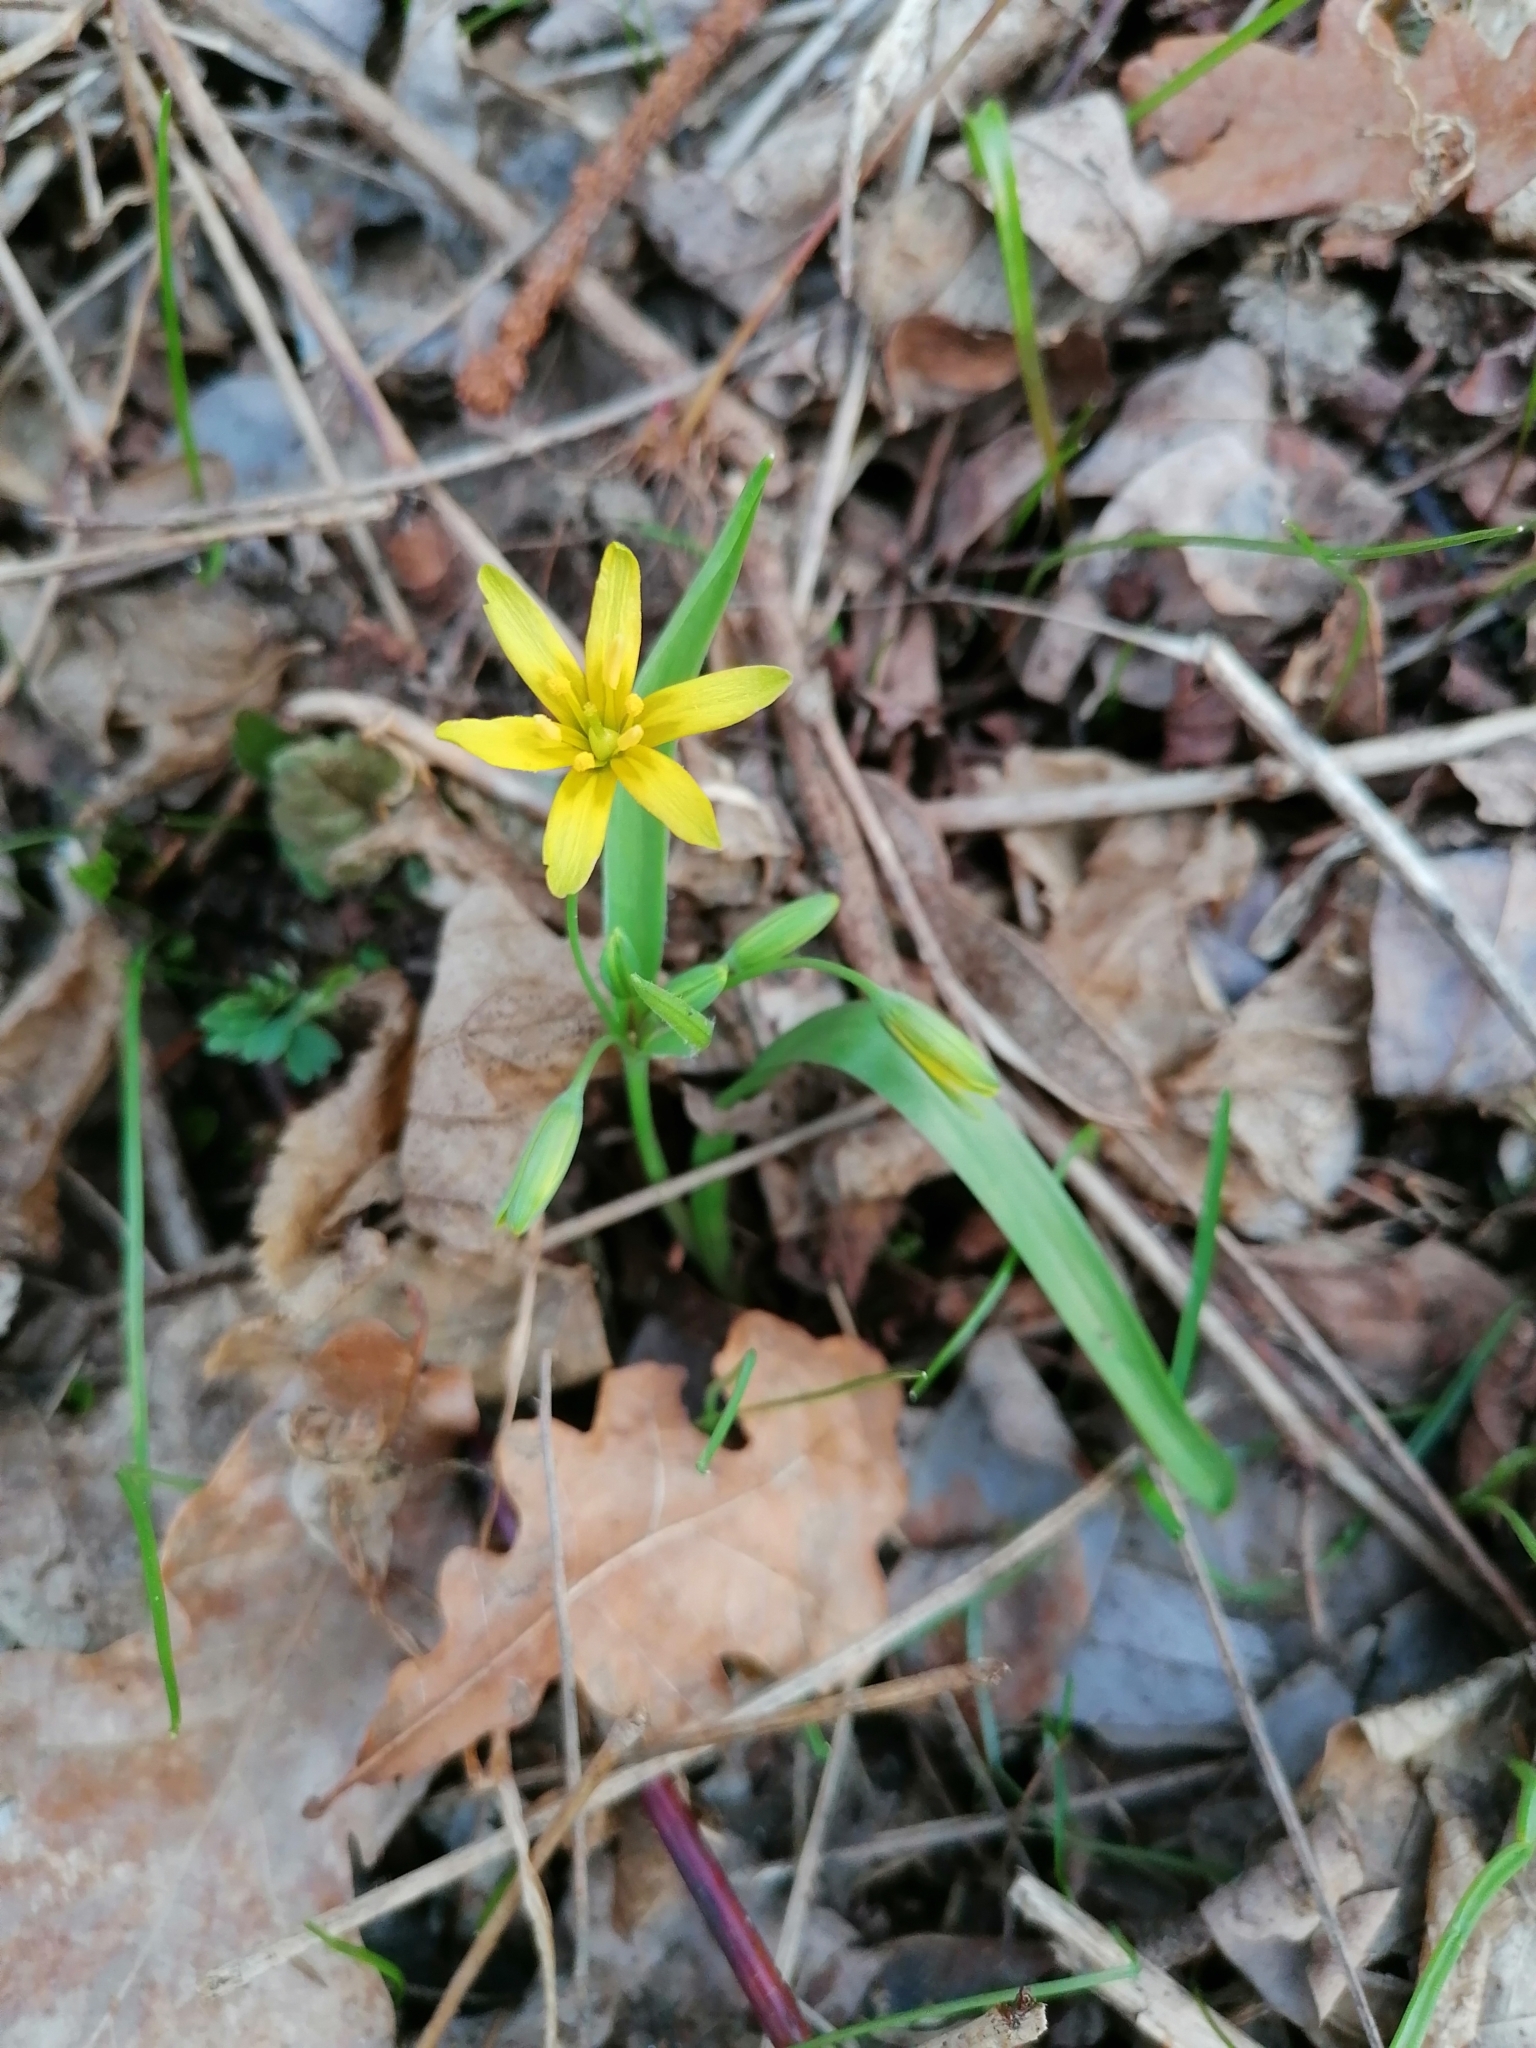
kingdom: Plantae
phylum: Tracheophyta
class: Liliopsida
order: Liliales
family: Liliaceae
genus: Gagea
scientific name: Gagea lutea
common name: Yellow star-of-bethlehem
